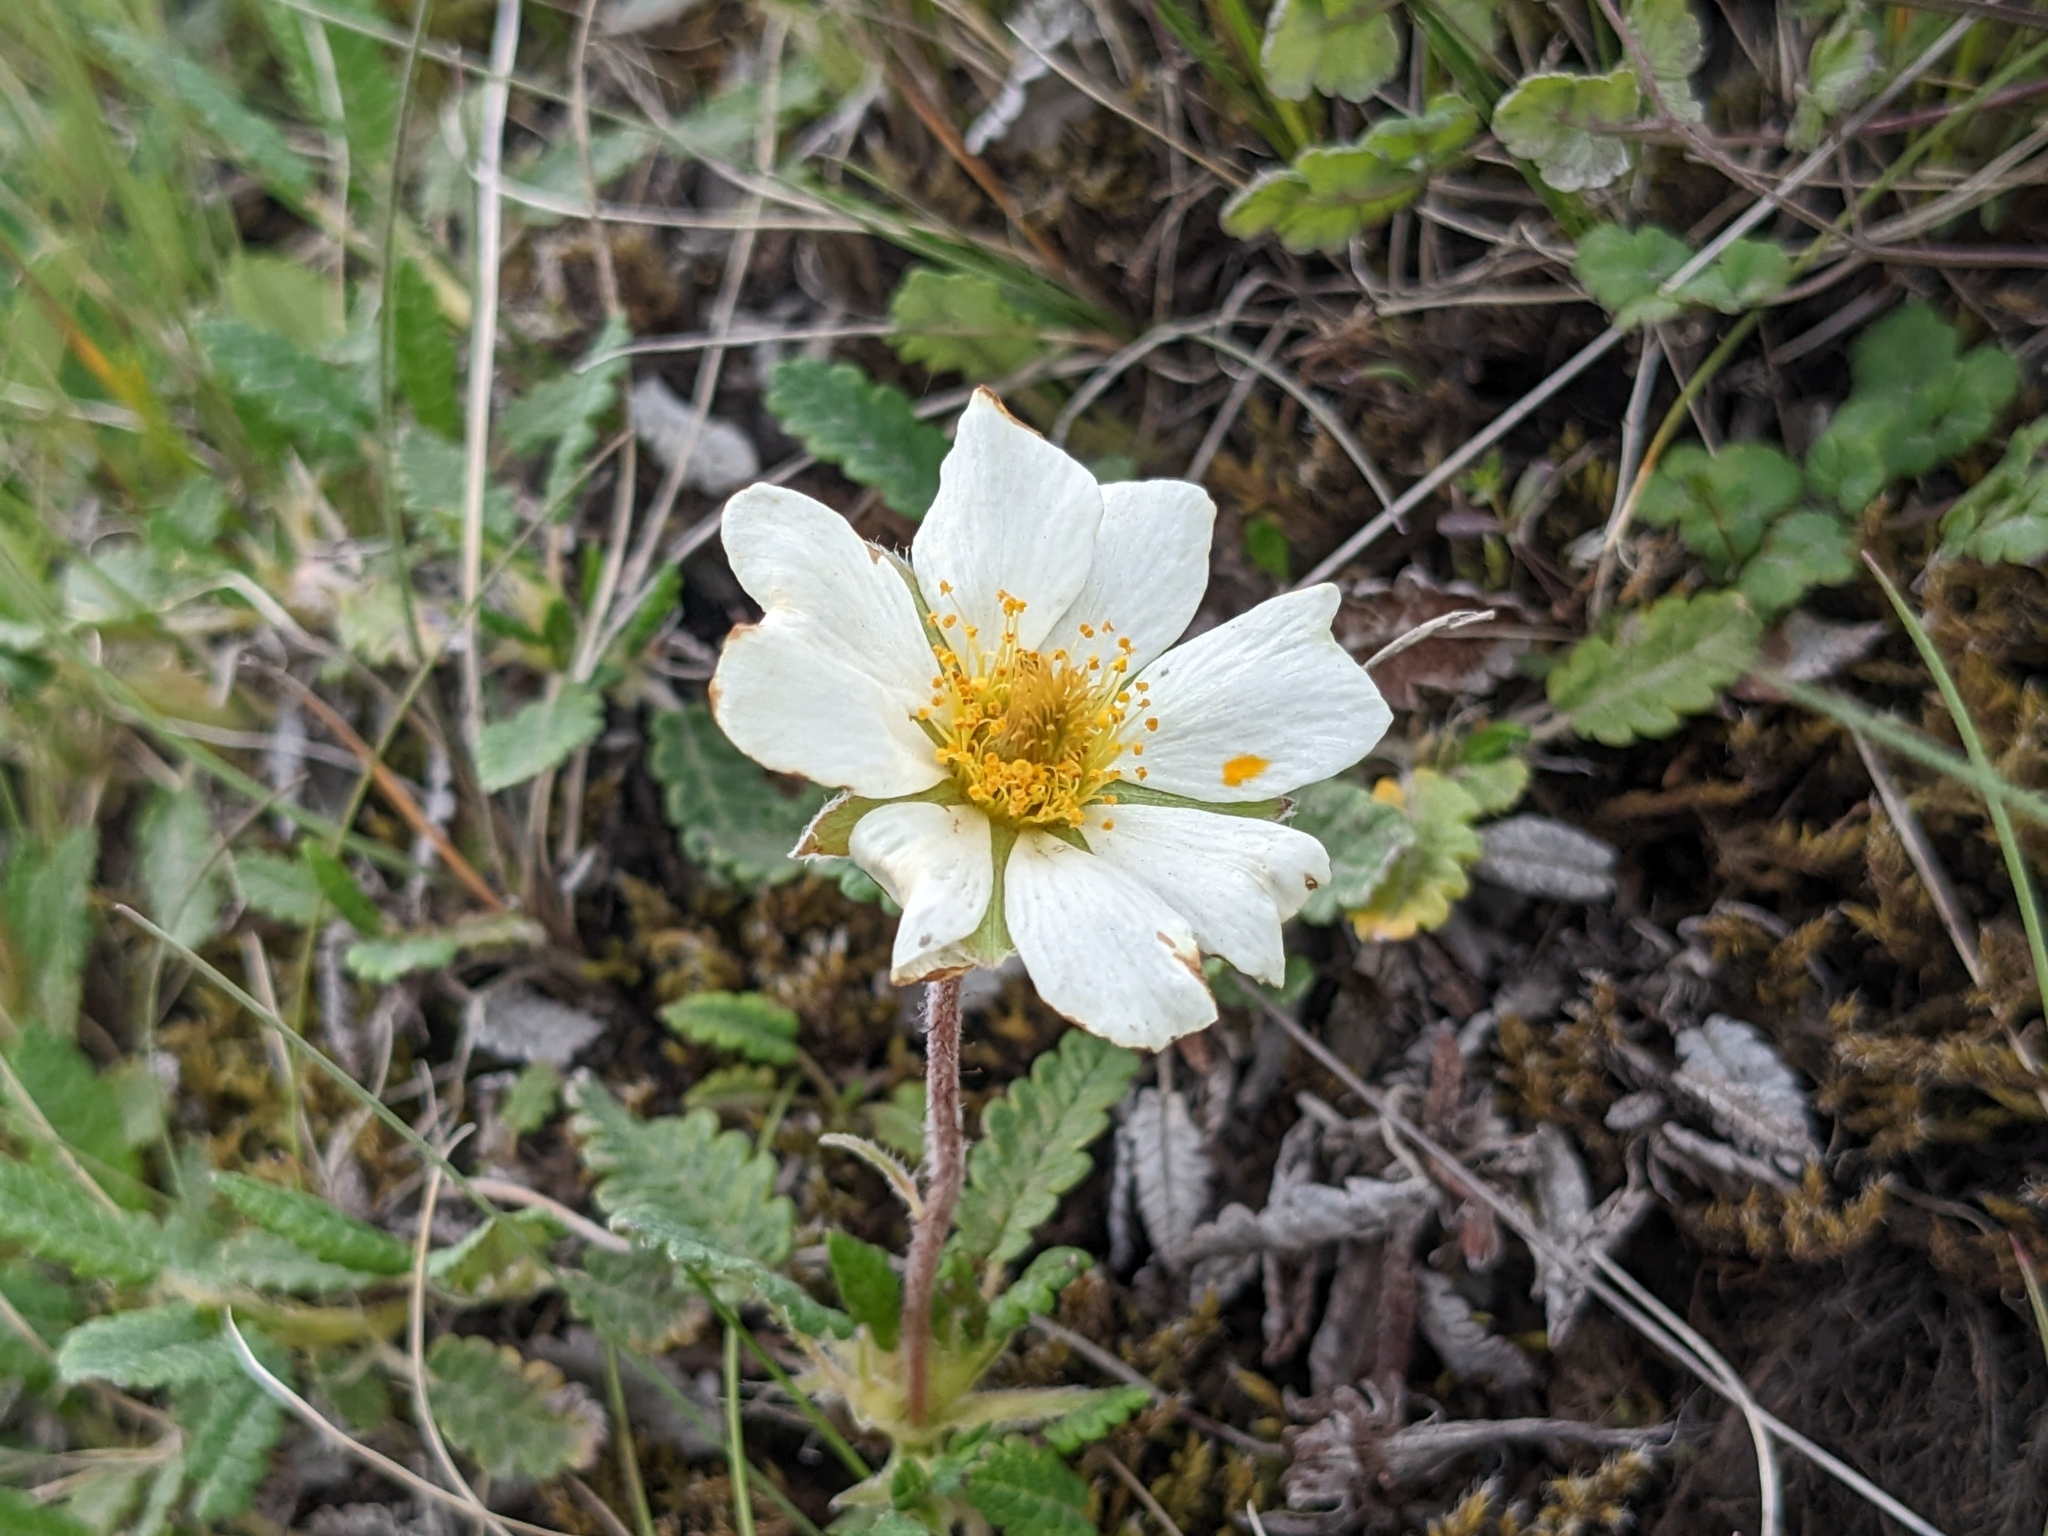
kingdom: Plantae
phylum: Tracheophyta
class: Magnoliopsida
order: Rosales
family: Rosaceae
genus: Dryas
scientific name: Dryas octopetala
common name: Eight-petal mountain-avens
